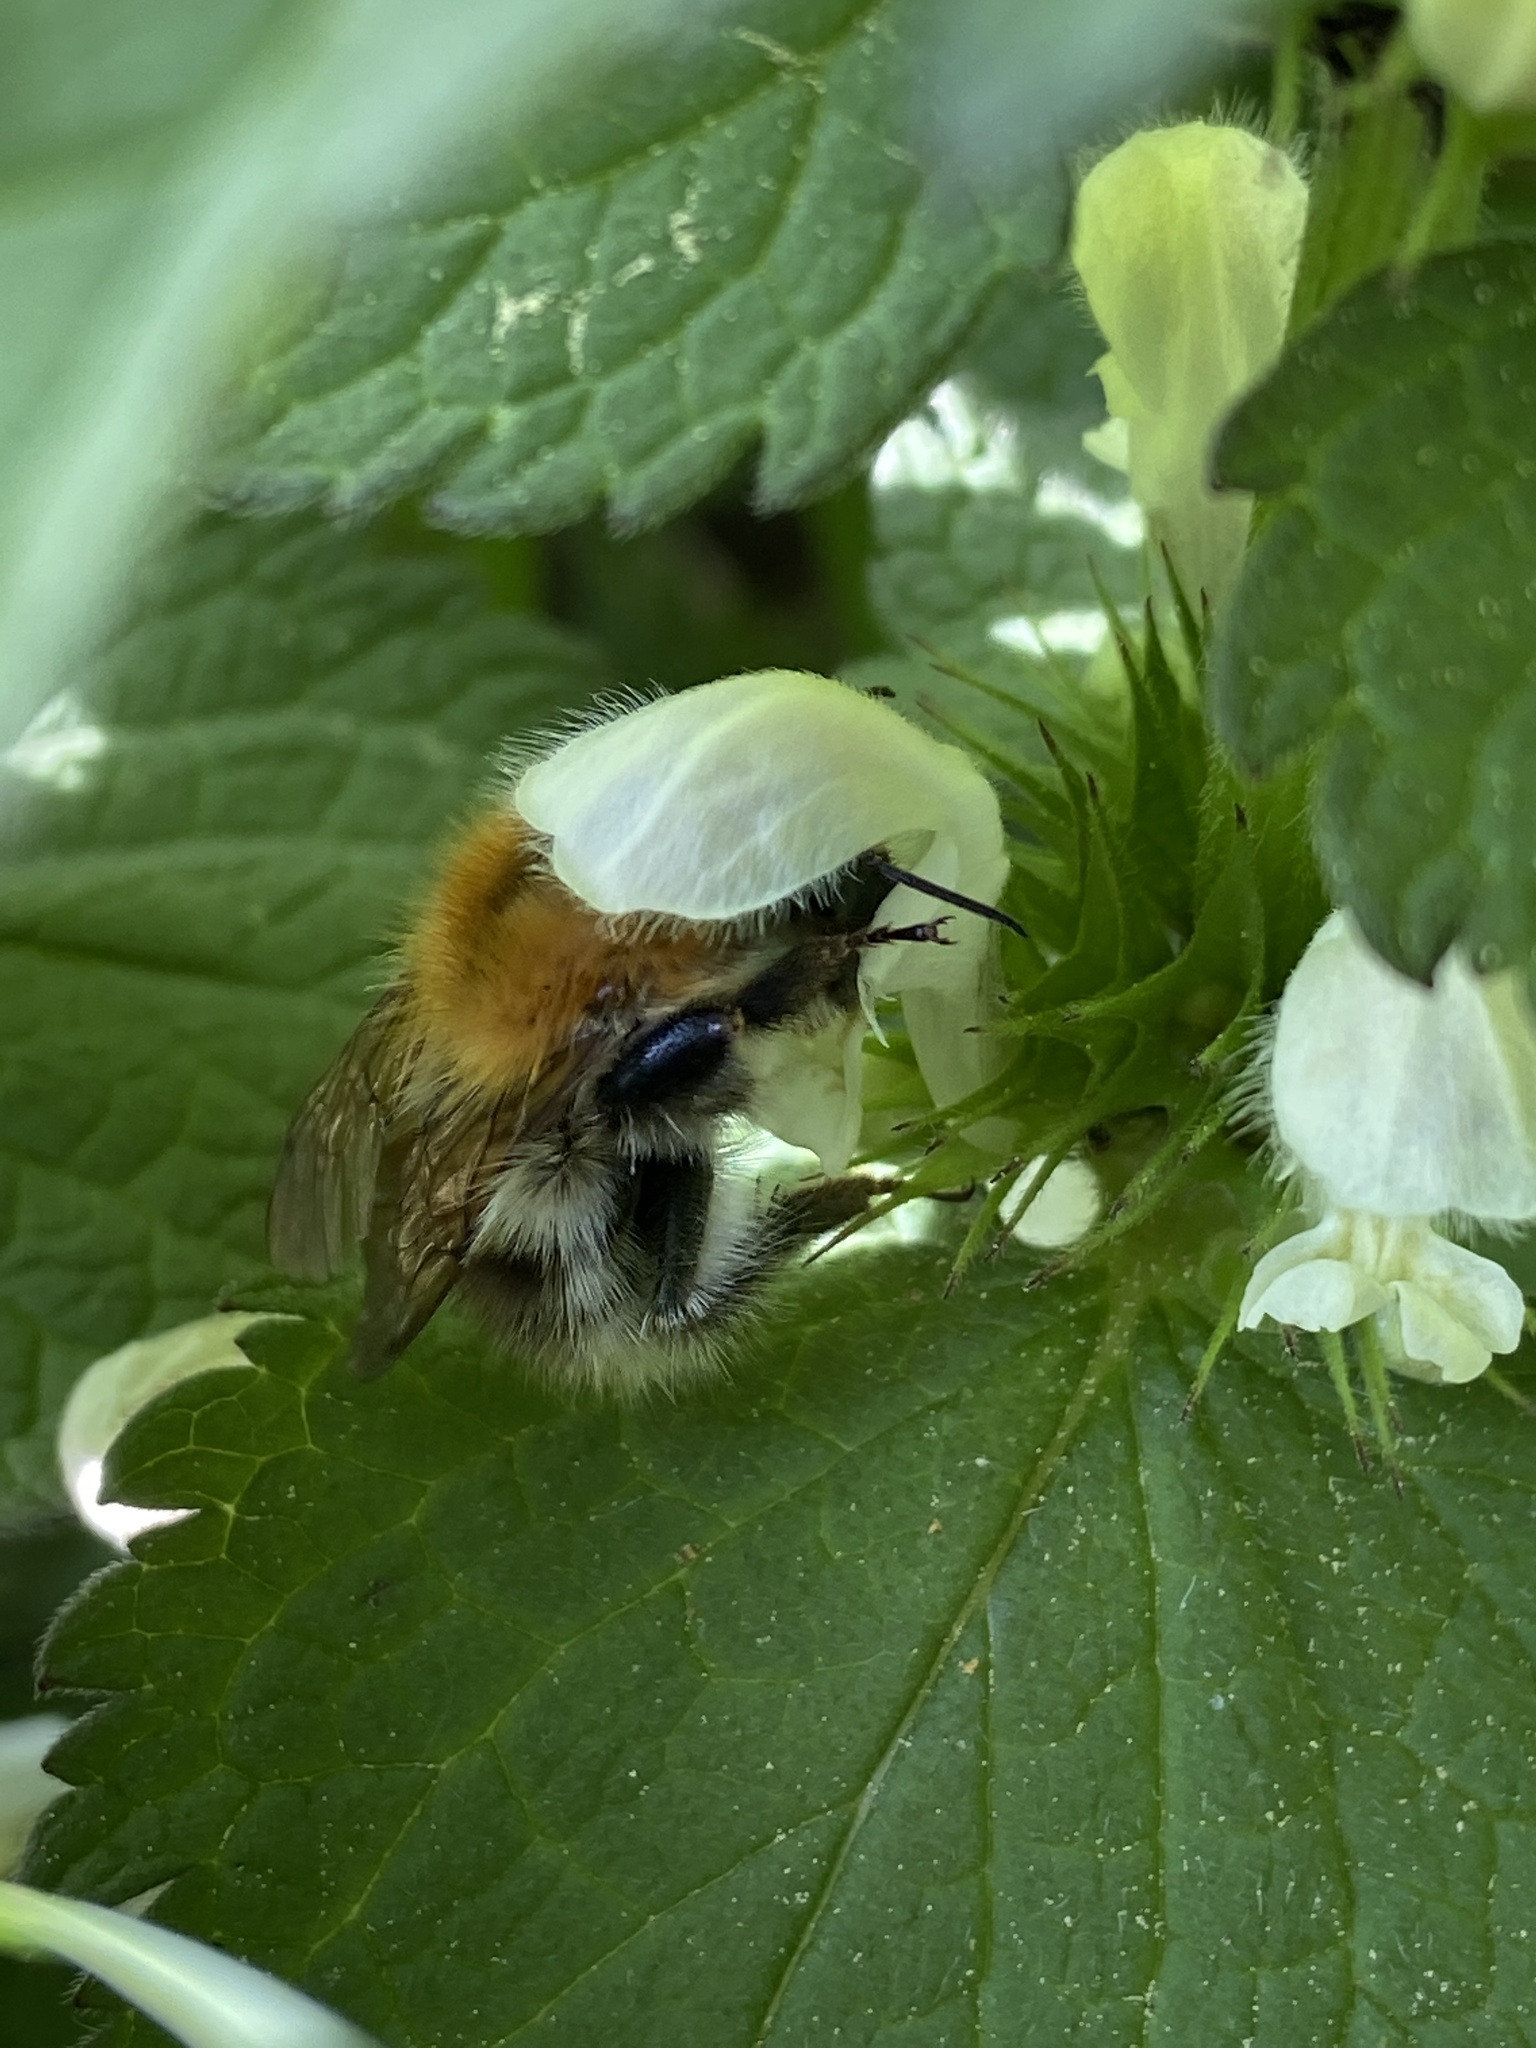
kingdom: Animalia
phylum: Arthropoda
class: Insecta
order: Hymenoptera
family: Apidae
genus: Bombus
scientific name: Bombus pascuorum
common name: Common carder bee
